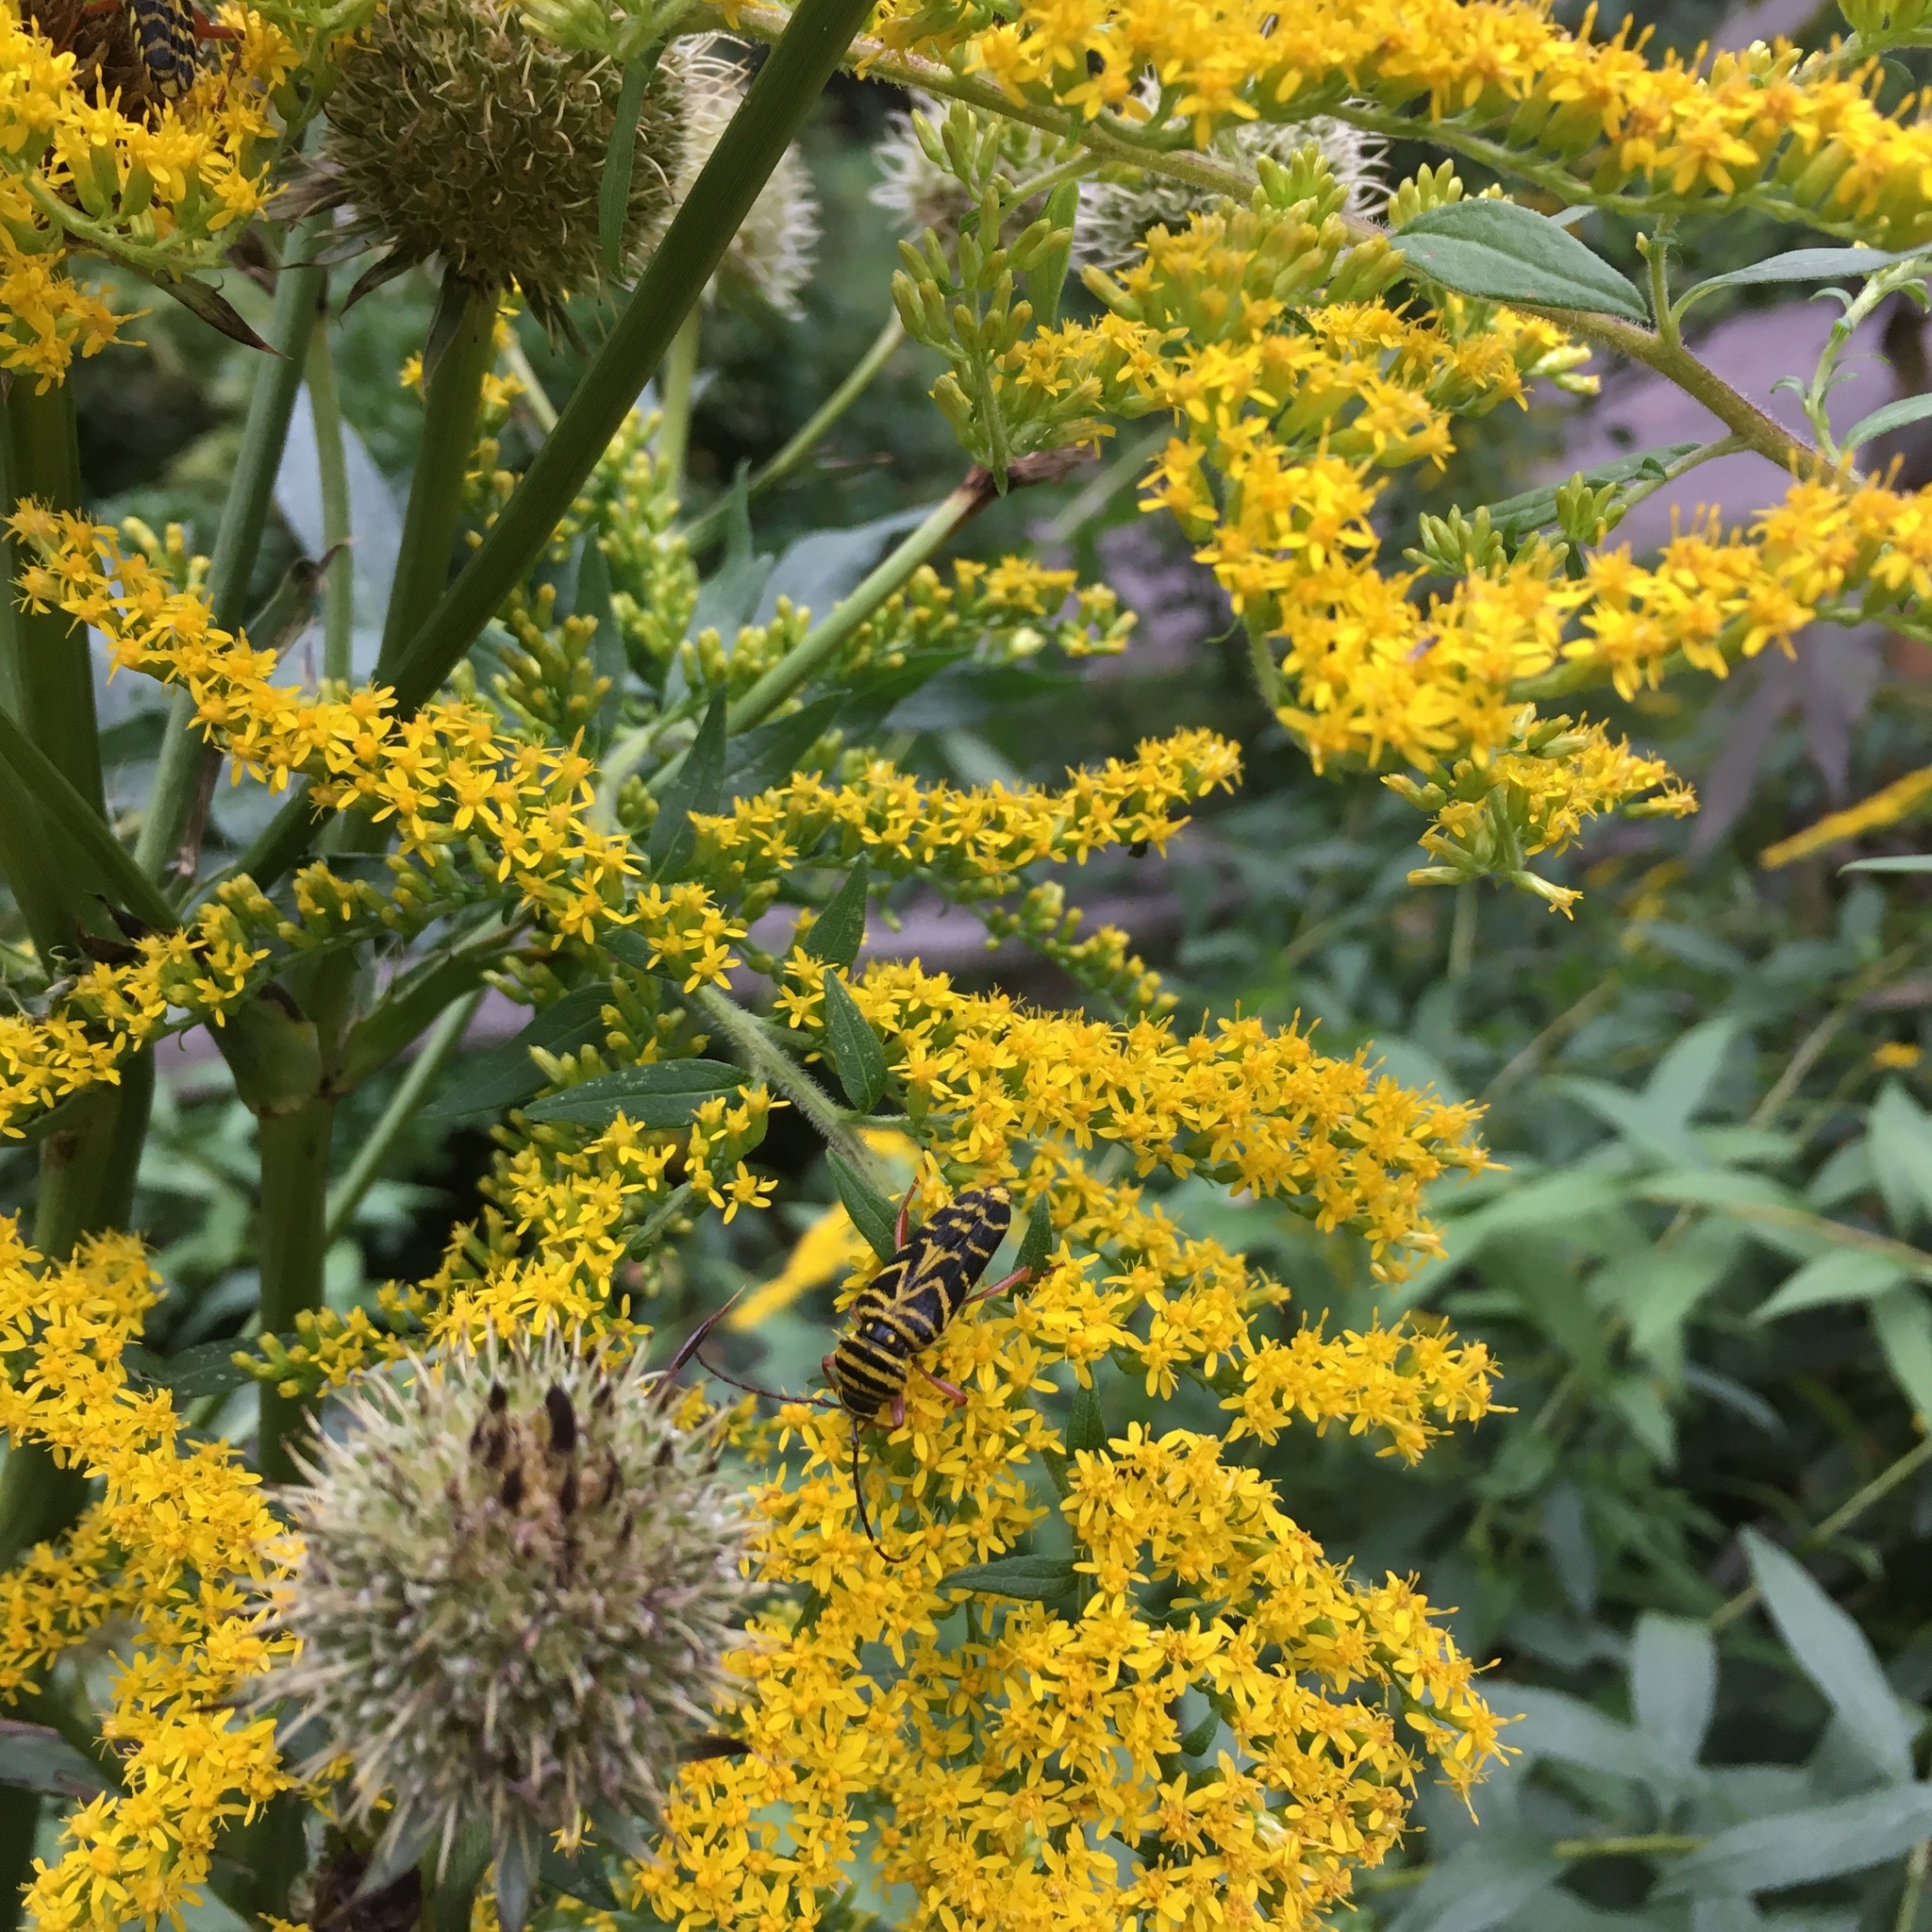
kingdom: Animalia
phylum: Arthropoda
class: Insecta
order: Coleoptera
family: Cerambycidae
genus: Megacyllene
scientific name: Megacyllene robiniae
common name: Locust borer
